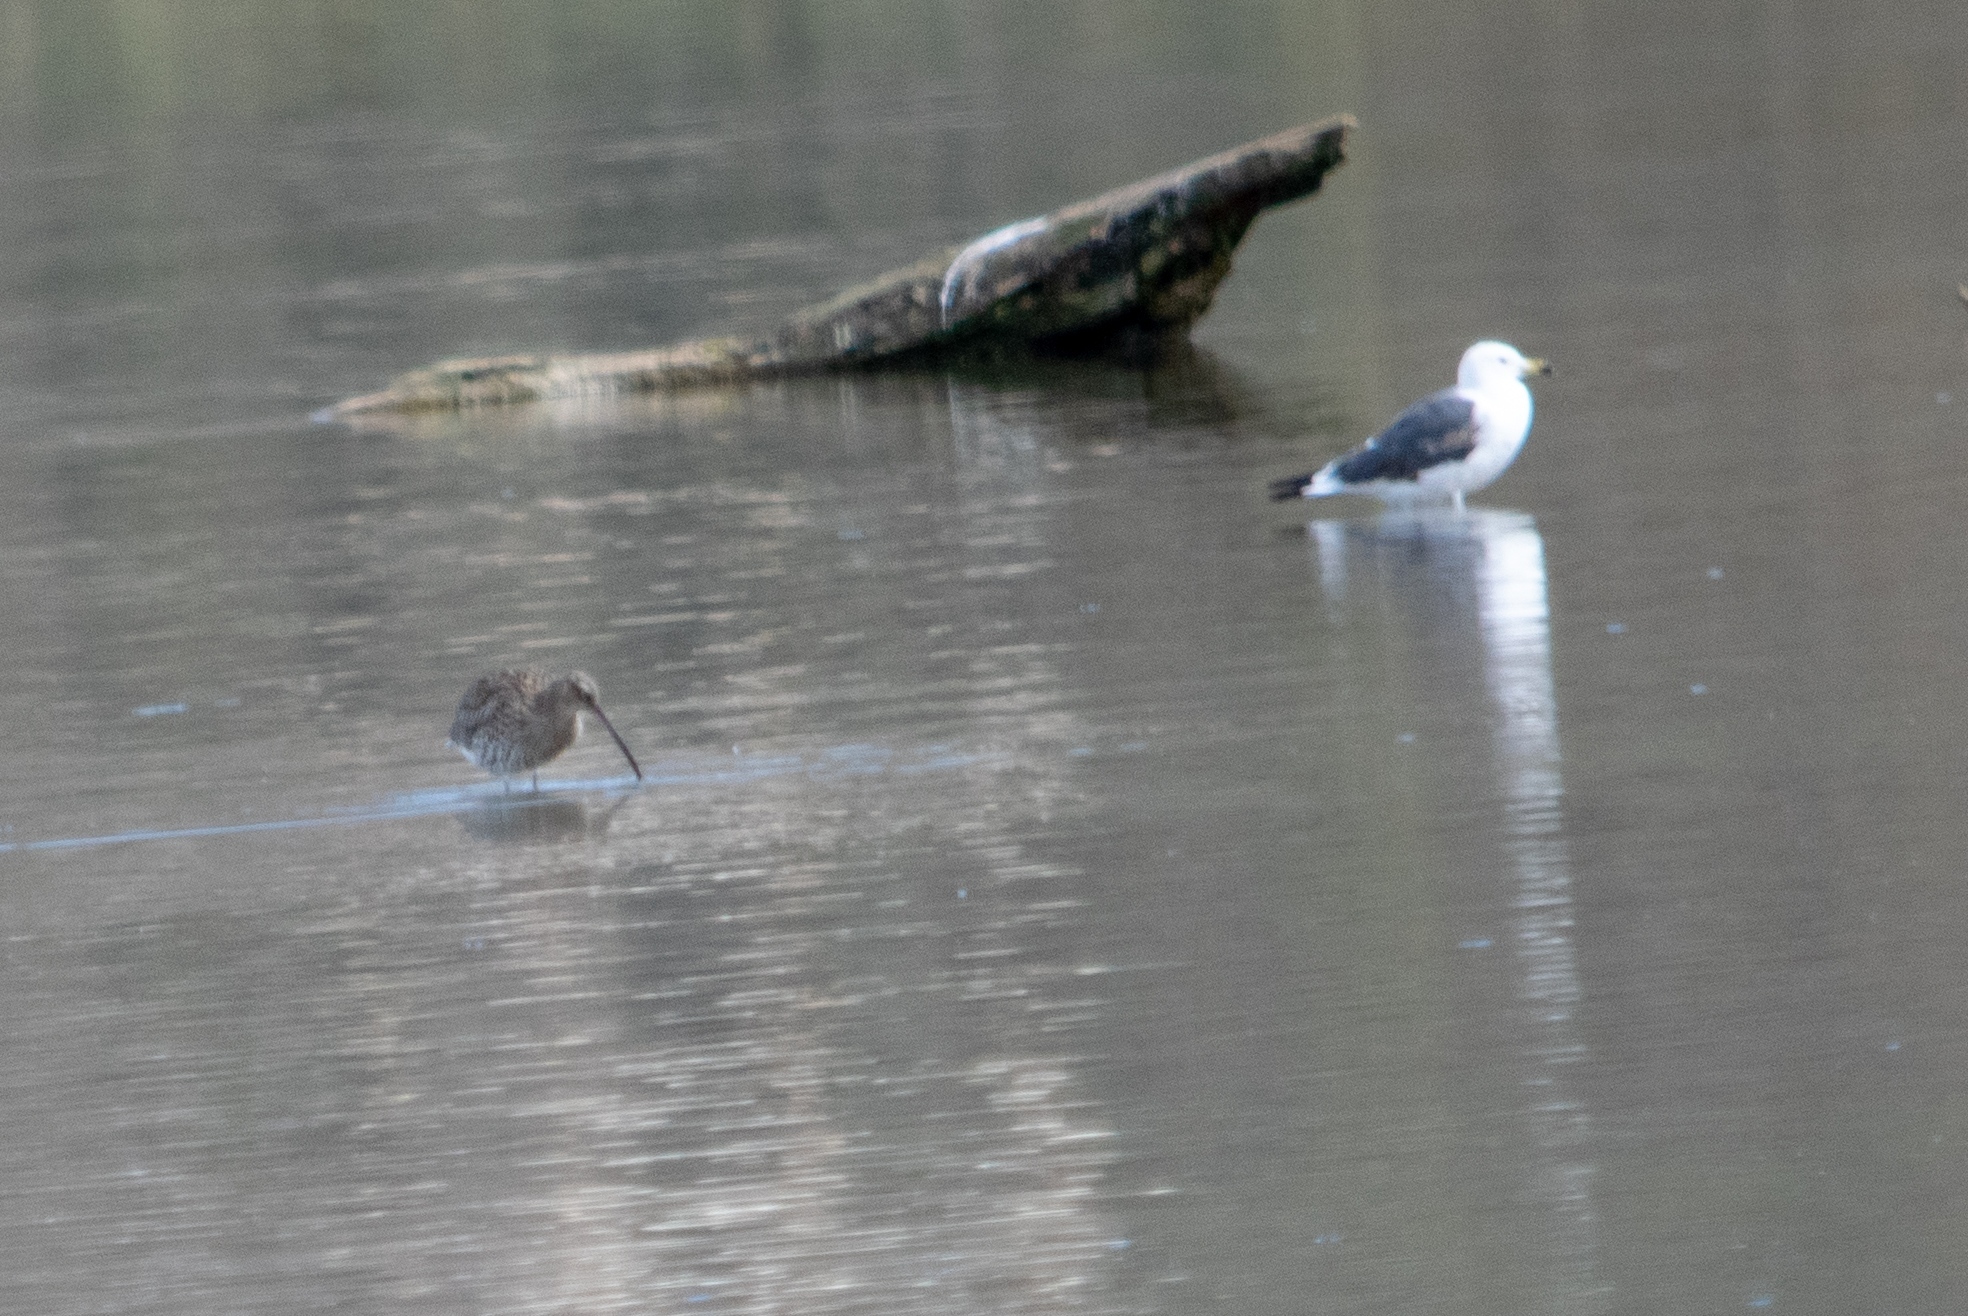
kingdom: Animalia
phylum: Chordata
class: Aves
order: Charadriiformes
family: Scolopacidae
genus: Numenius
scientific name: Numenius arquata
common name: Eurasian curlew
